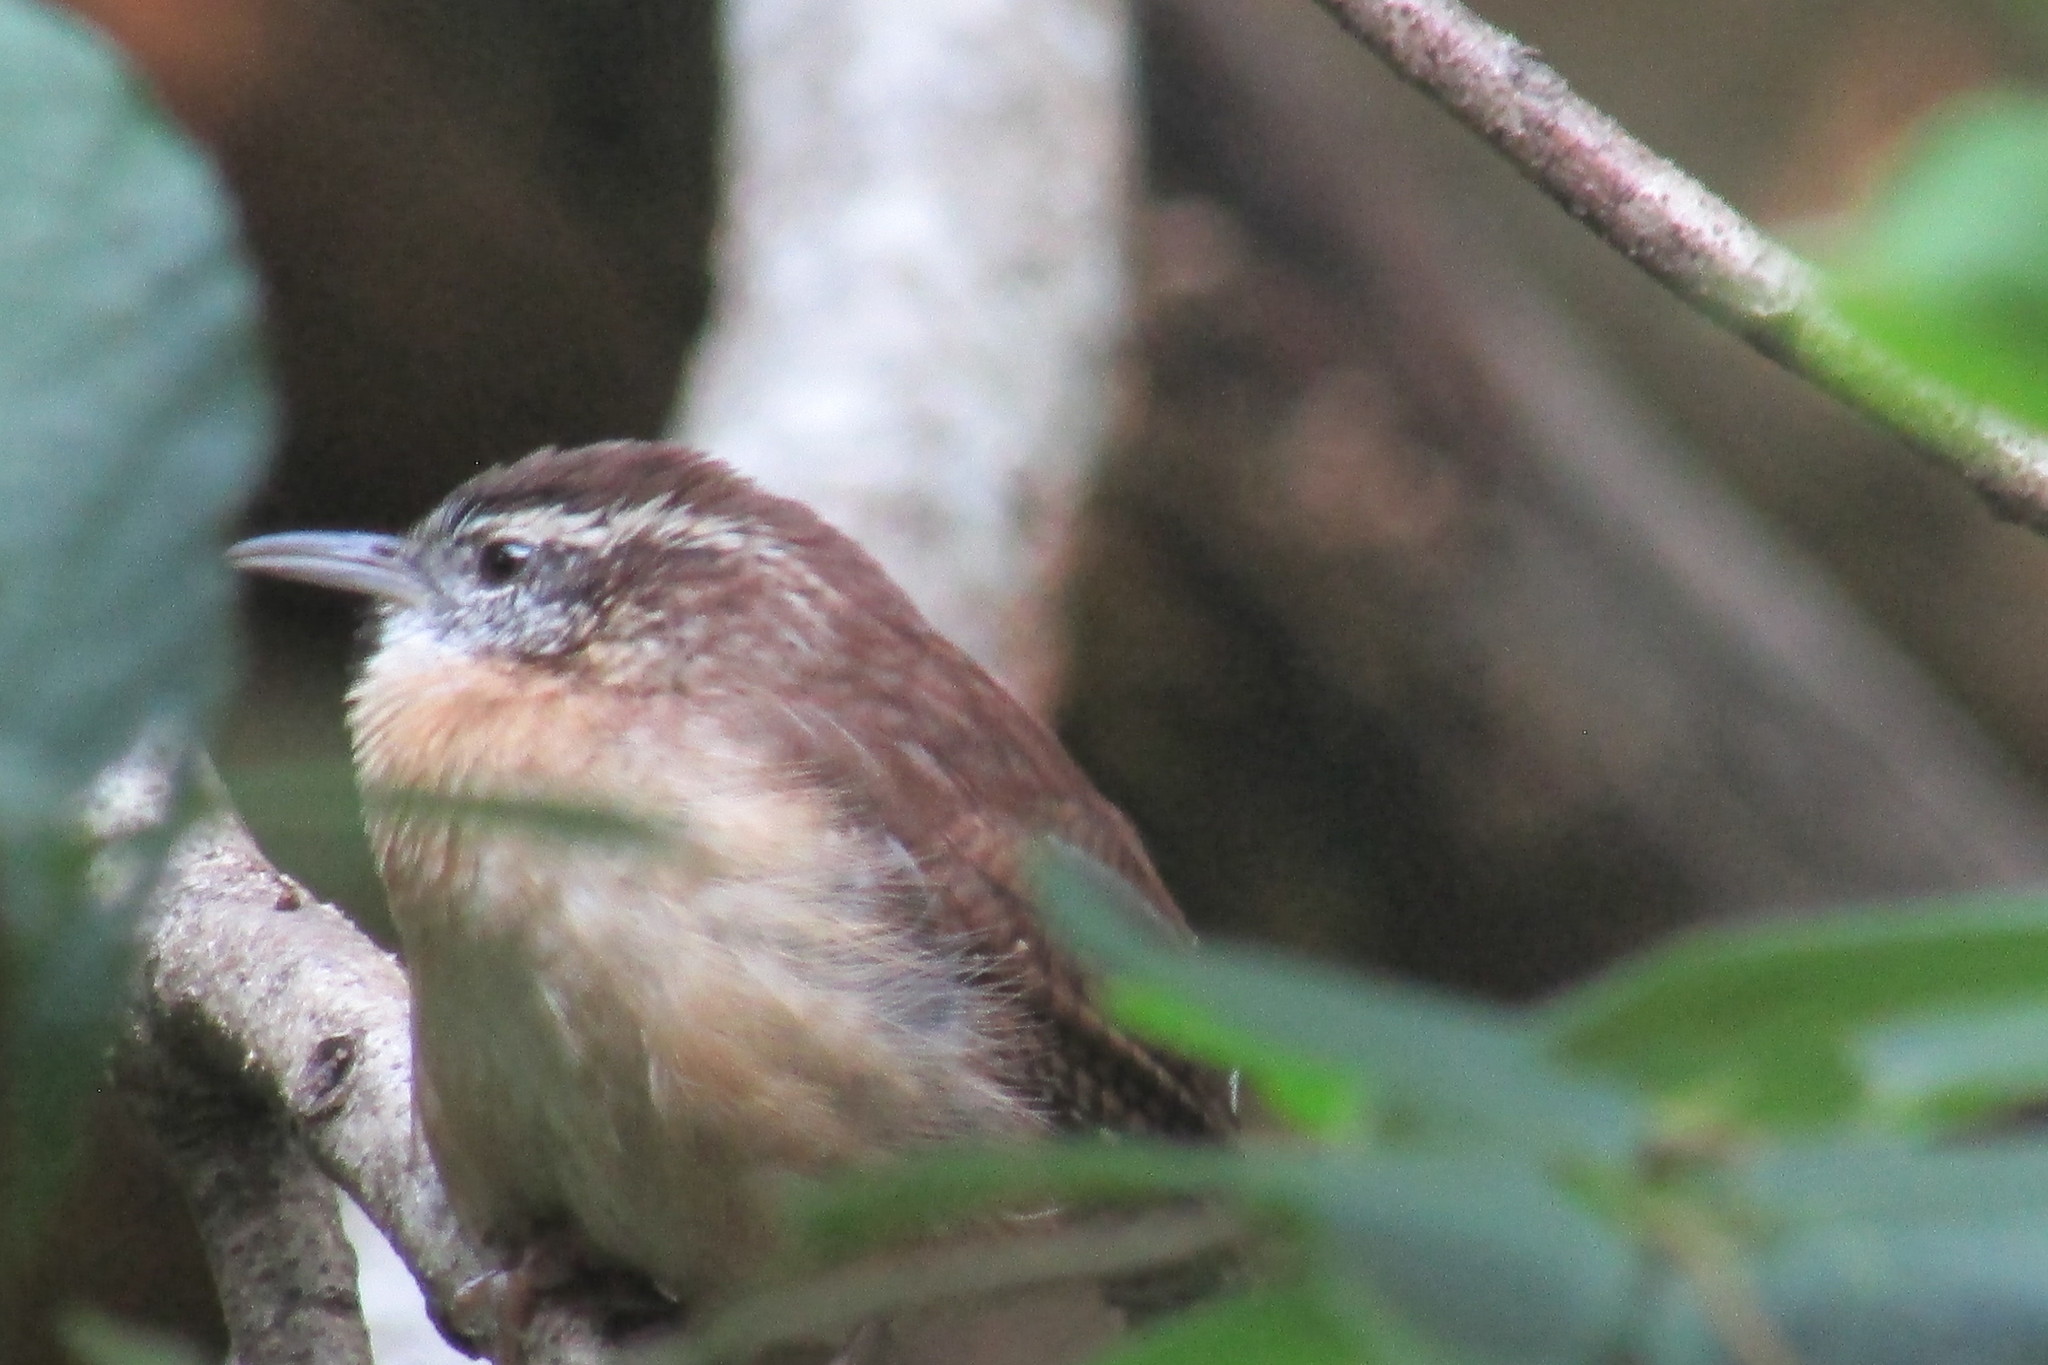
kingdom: Animalia
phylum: Chordata
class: Aves
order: Passeriformes
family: Troglodytidae
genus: Thryothorus
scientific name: Thryothorus ludovicianus
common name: Carolina wren
